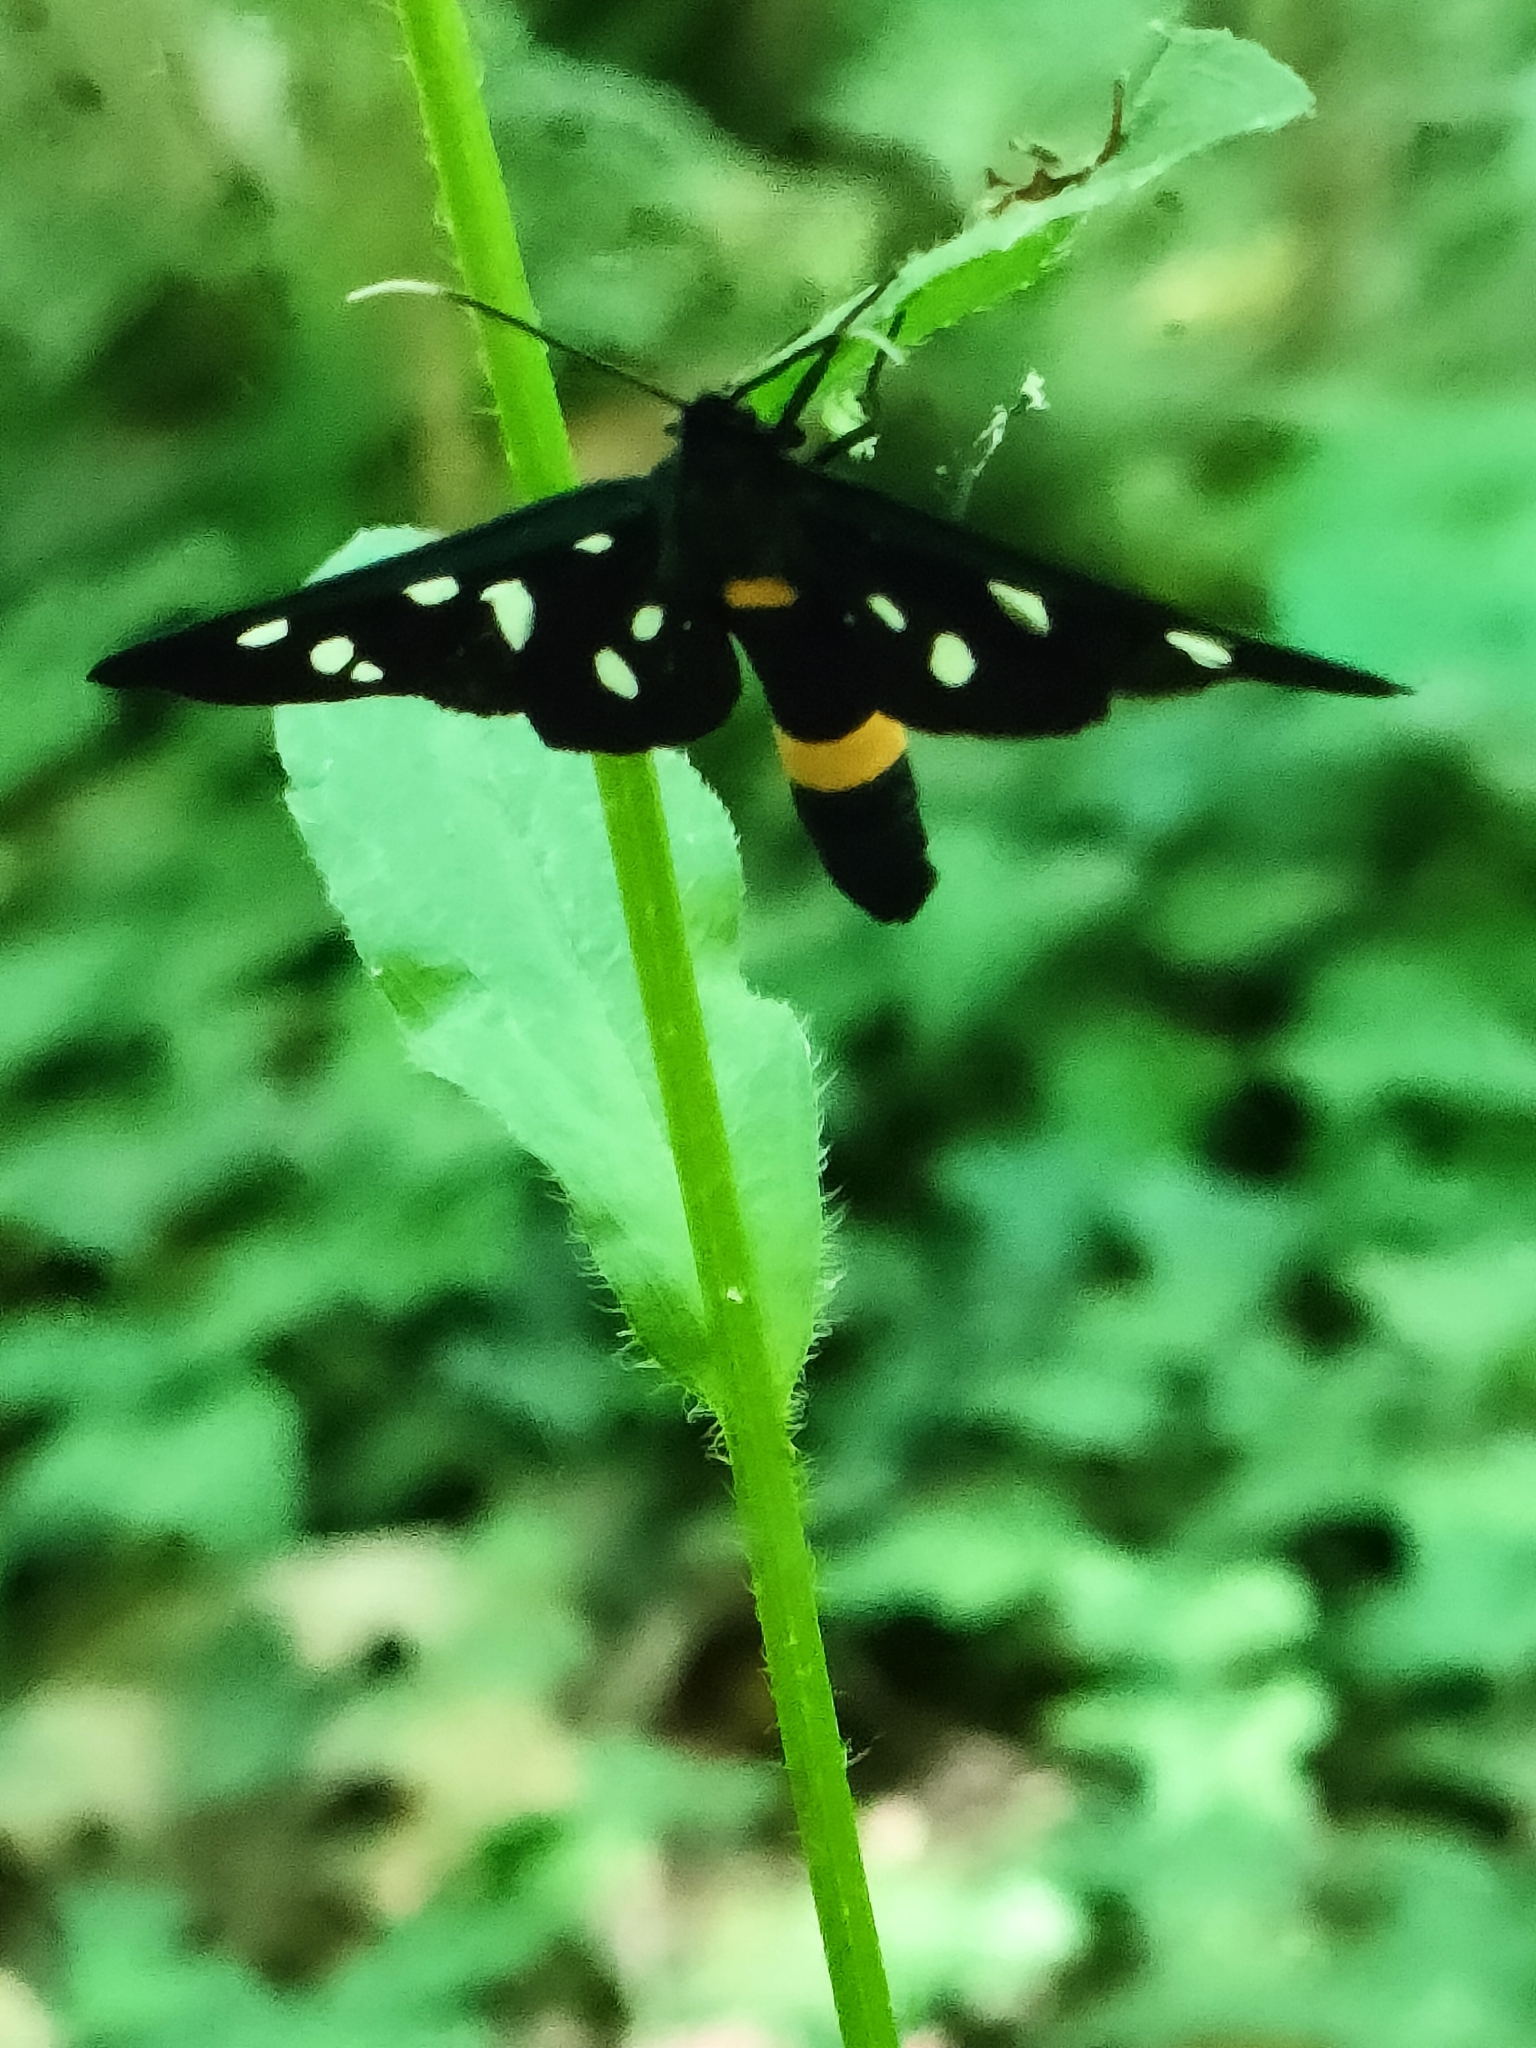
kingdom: Animalia
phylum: Arthropoda
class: Insecta
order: Lepidoptera
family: Erebidae
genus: Amata
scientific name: Amata phegea
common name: Nine-spotted
